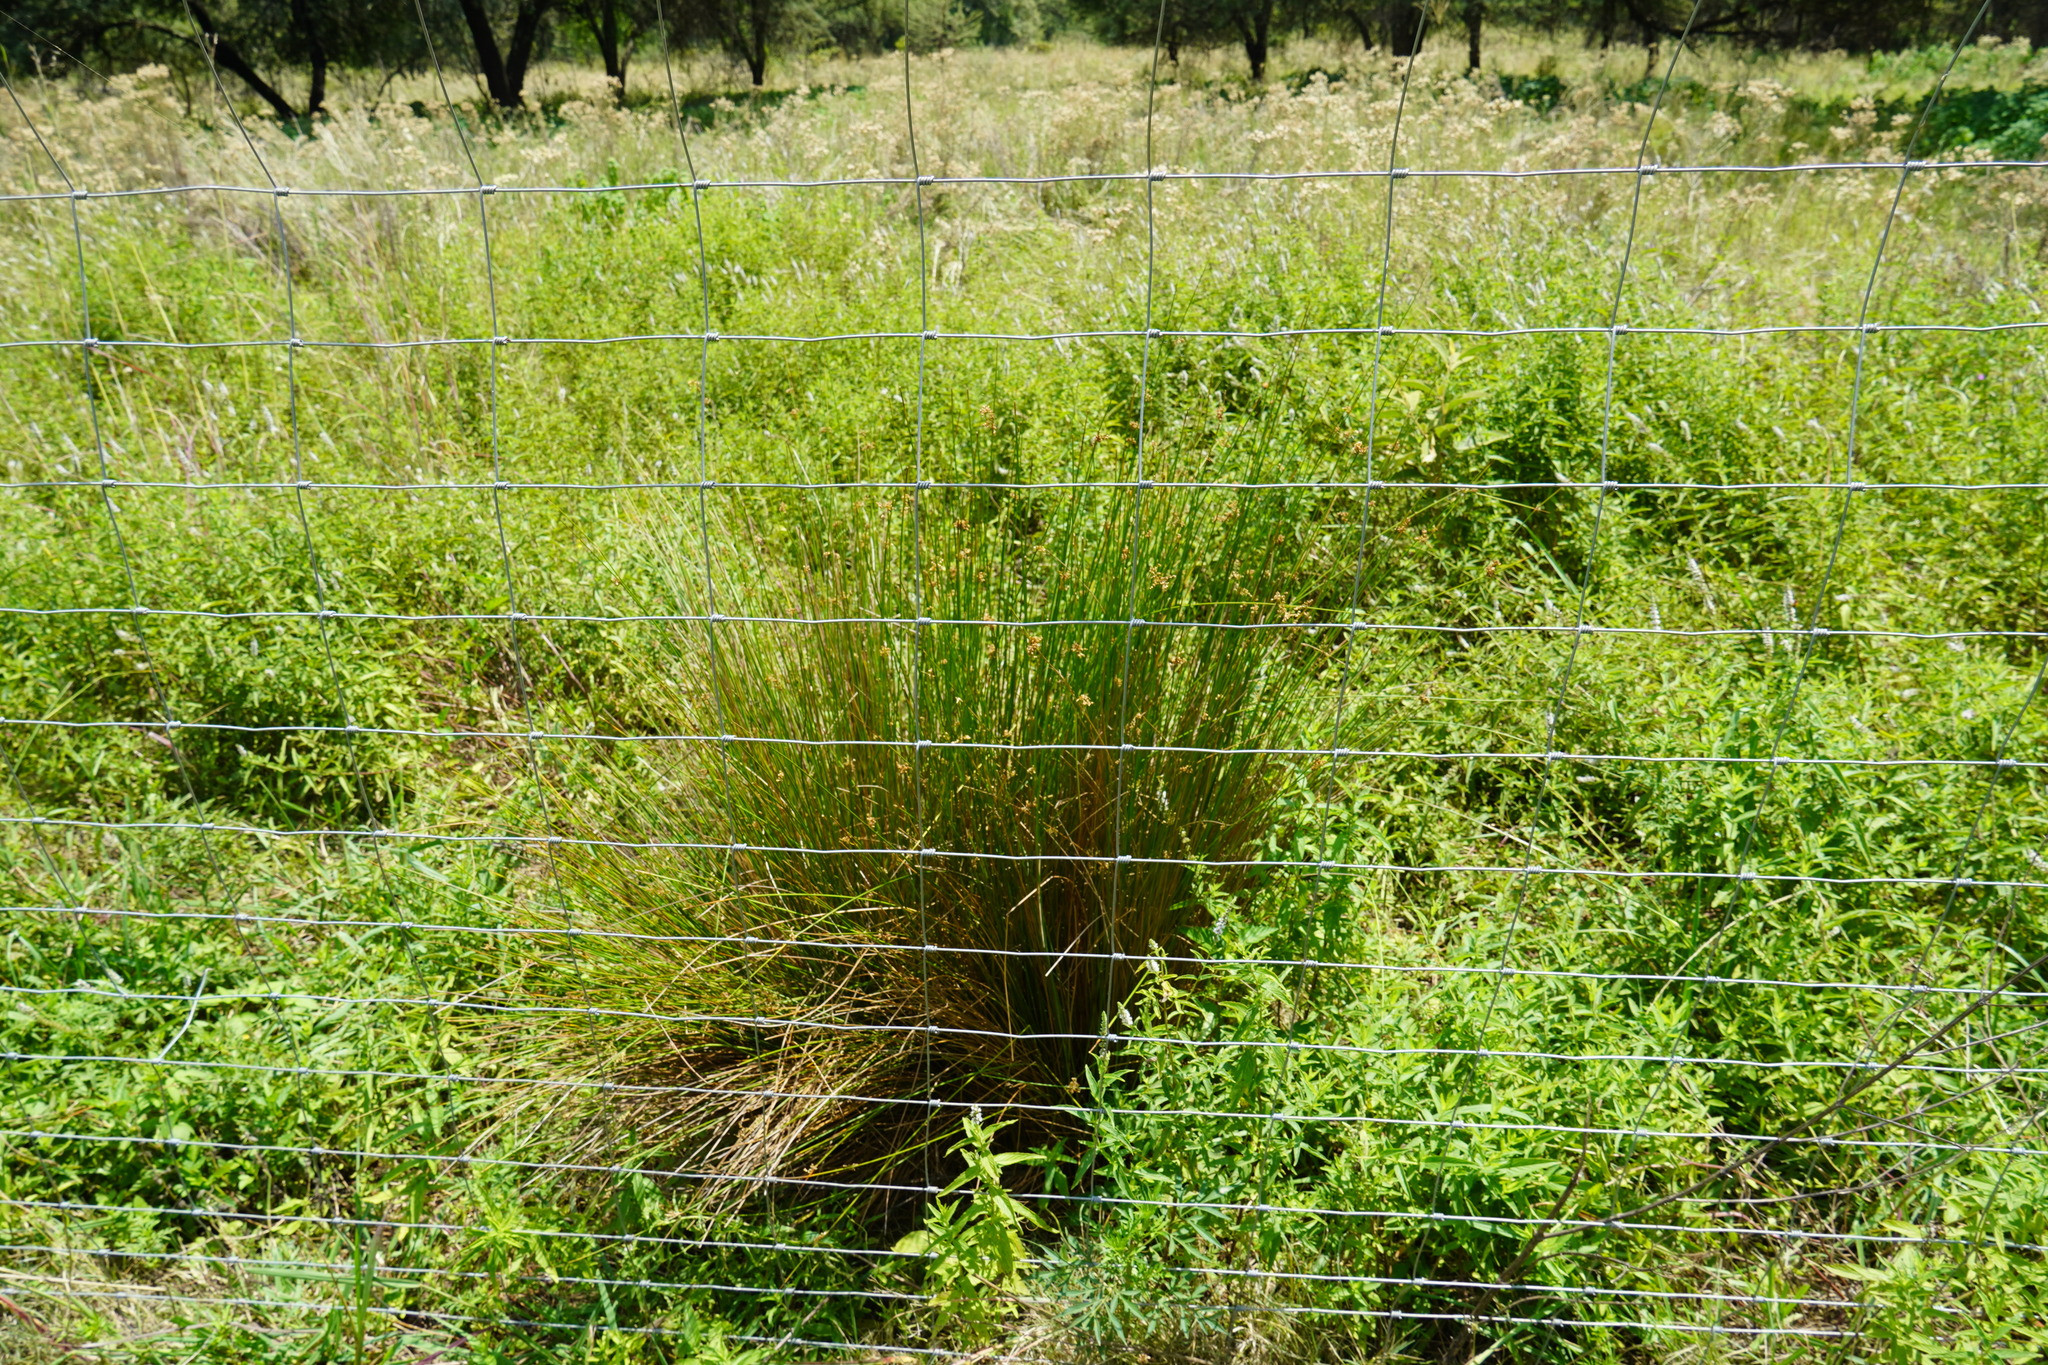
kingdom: Plantae
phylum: Tracheophyta
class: Liliopsida
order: Poales
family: Juncaceae
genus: Juncus
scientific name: Juncus effusus
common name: Soft rush
